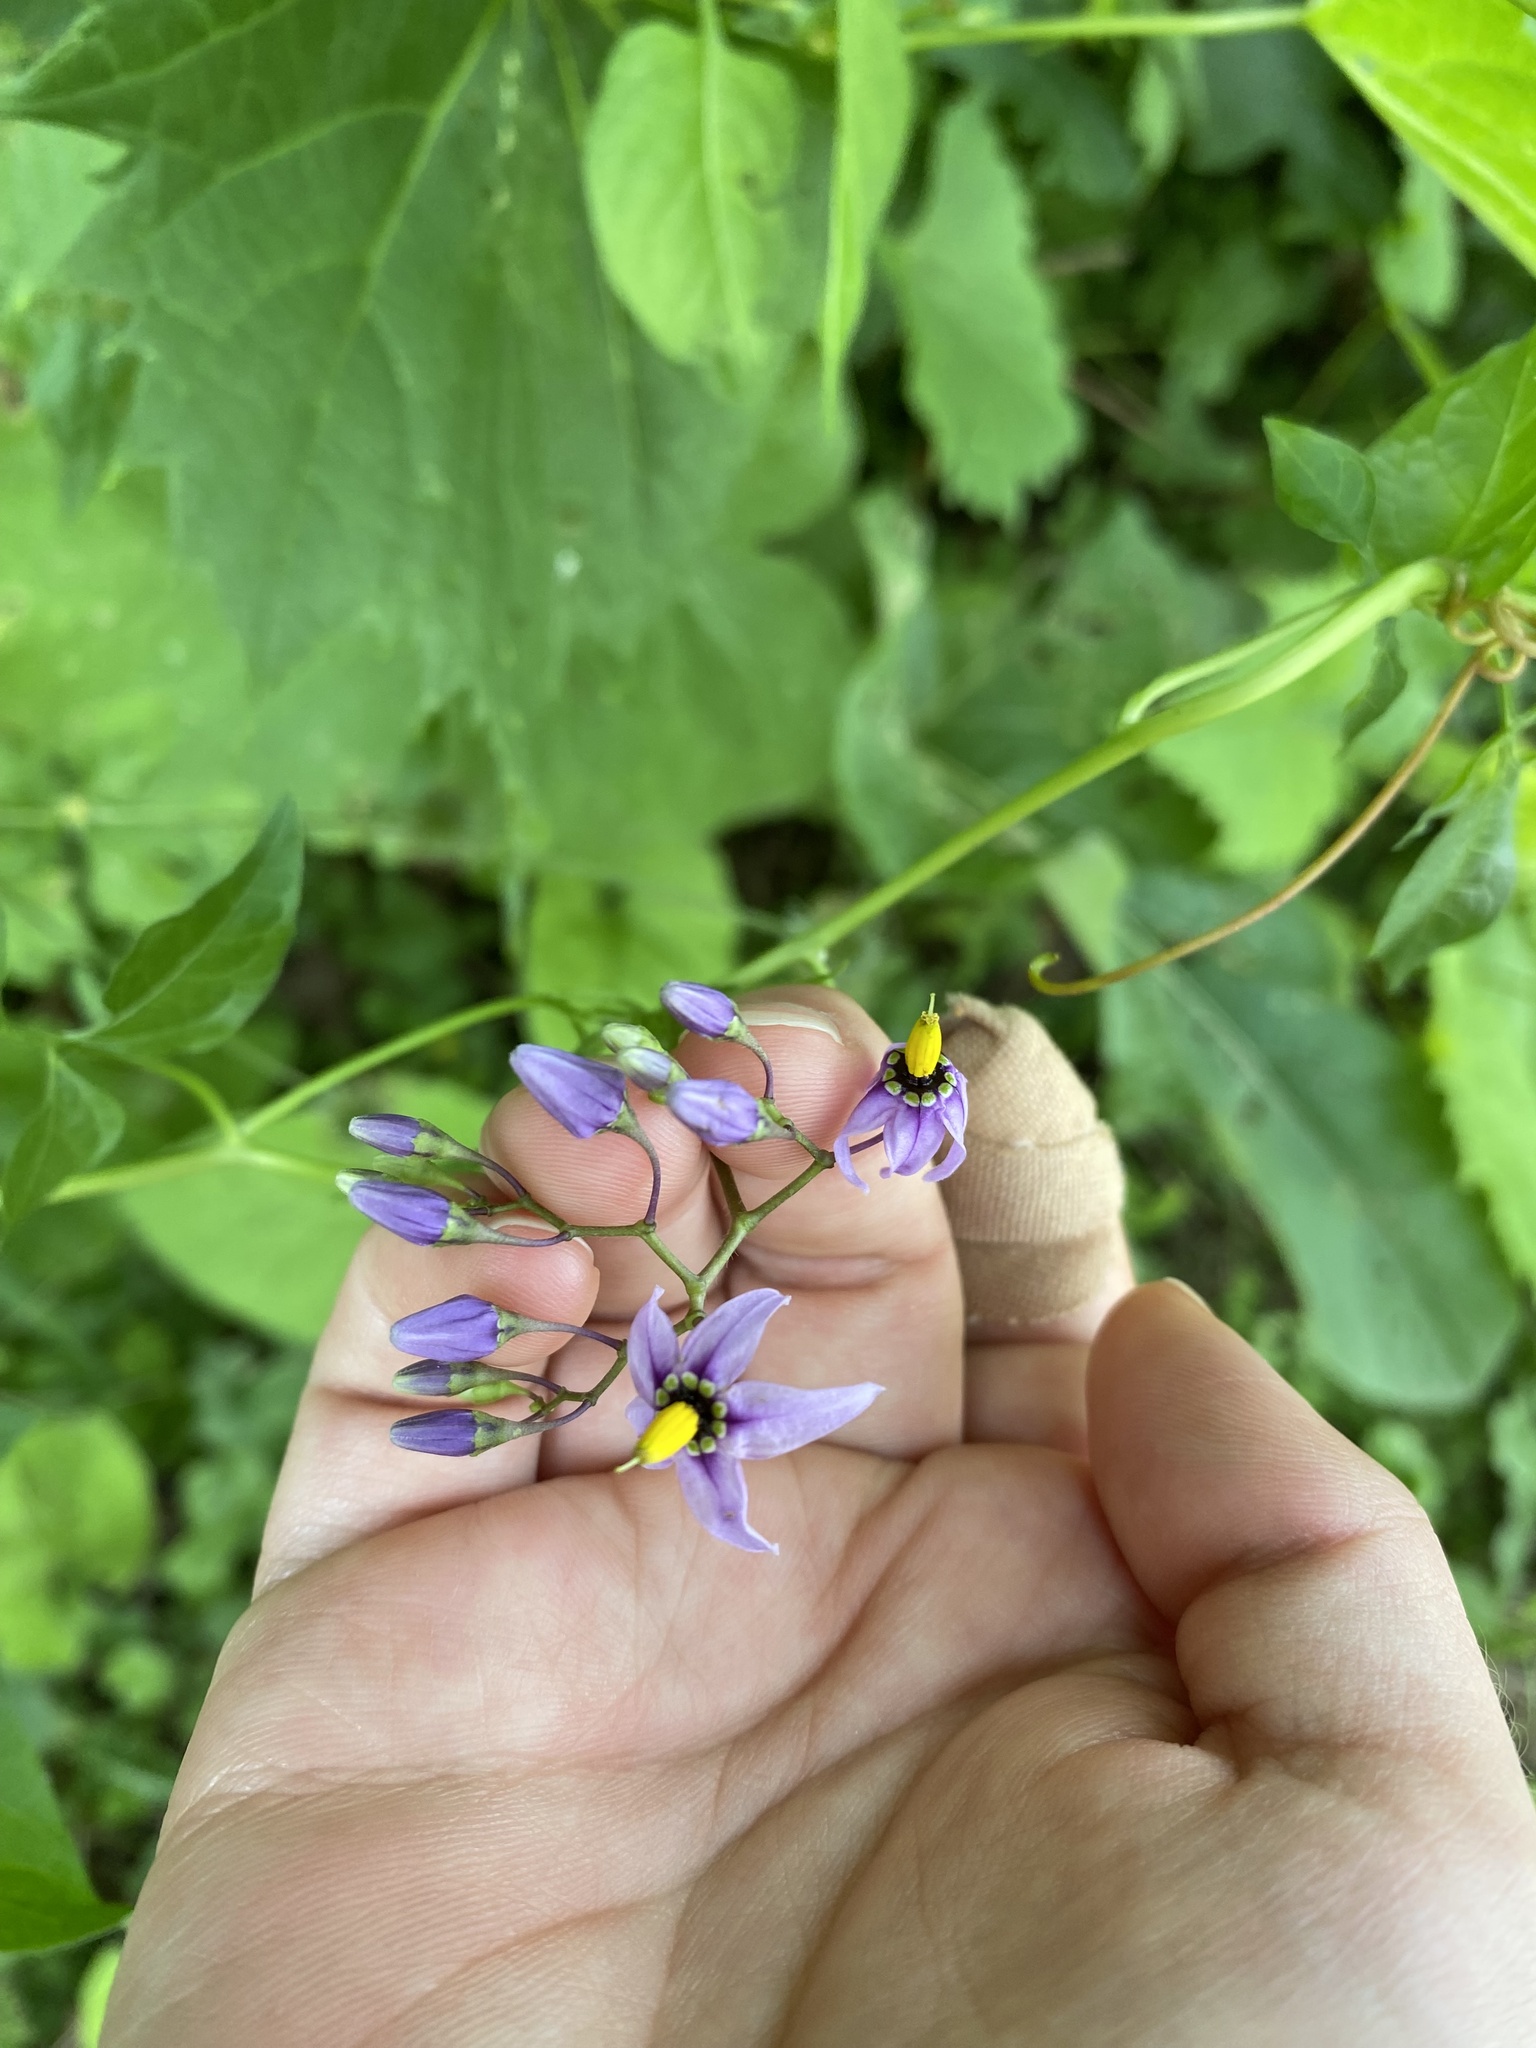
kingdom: Plantae
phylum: Tracheophyta
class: Magnoliopsida
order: Solanales
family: Solanaceae
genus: Solanum
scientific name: Solanum dulcamara
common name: Climbing nightshade
